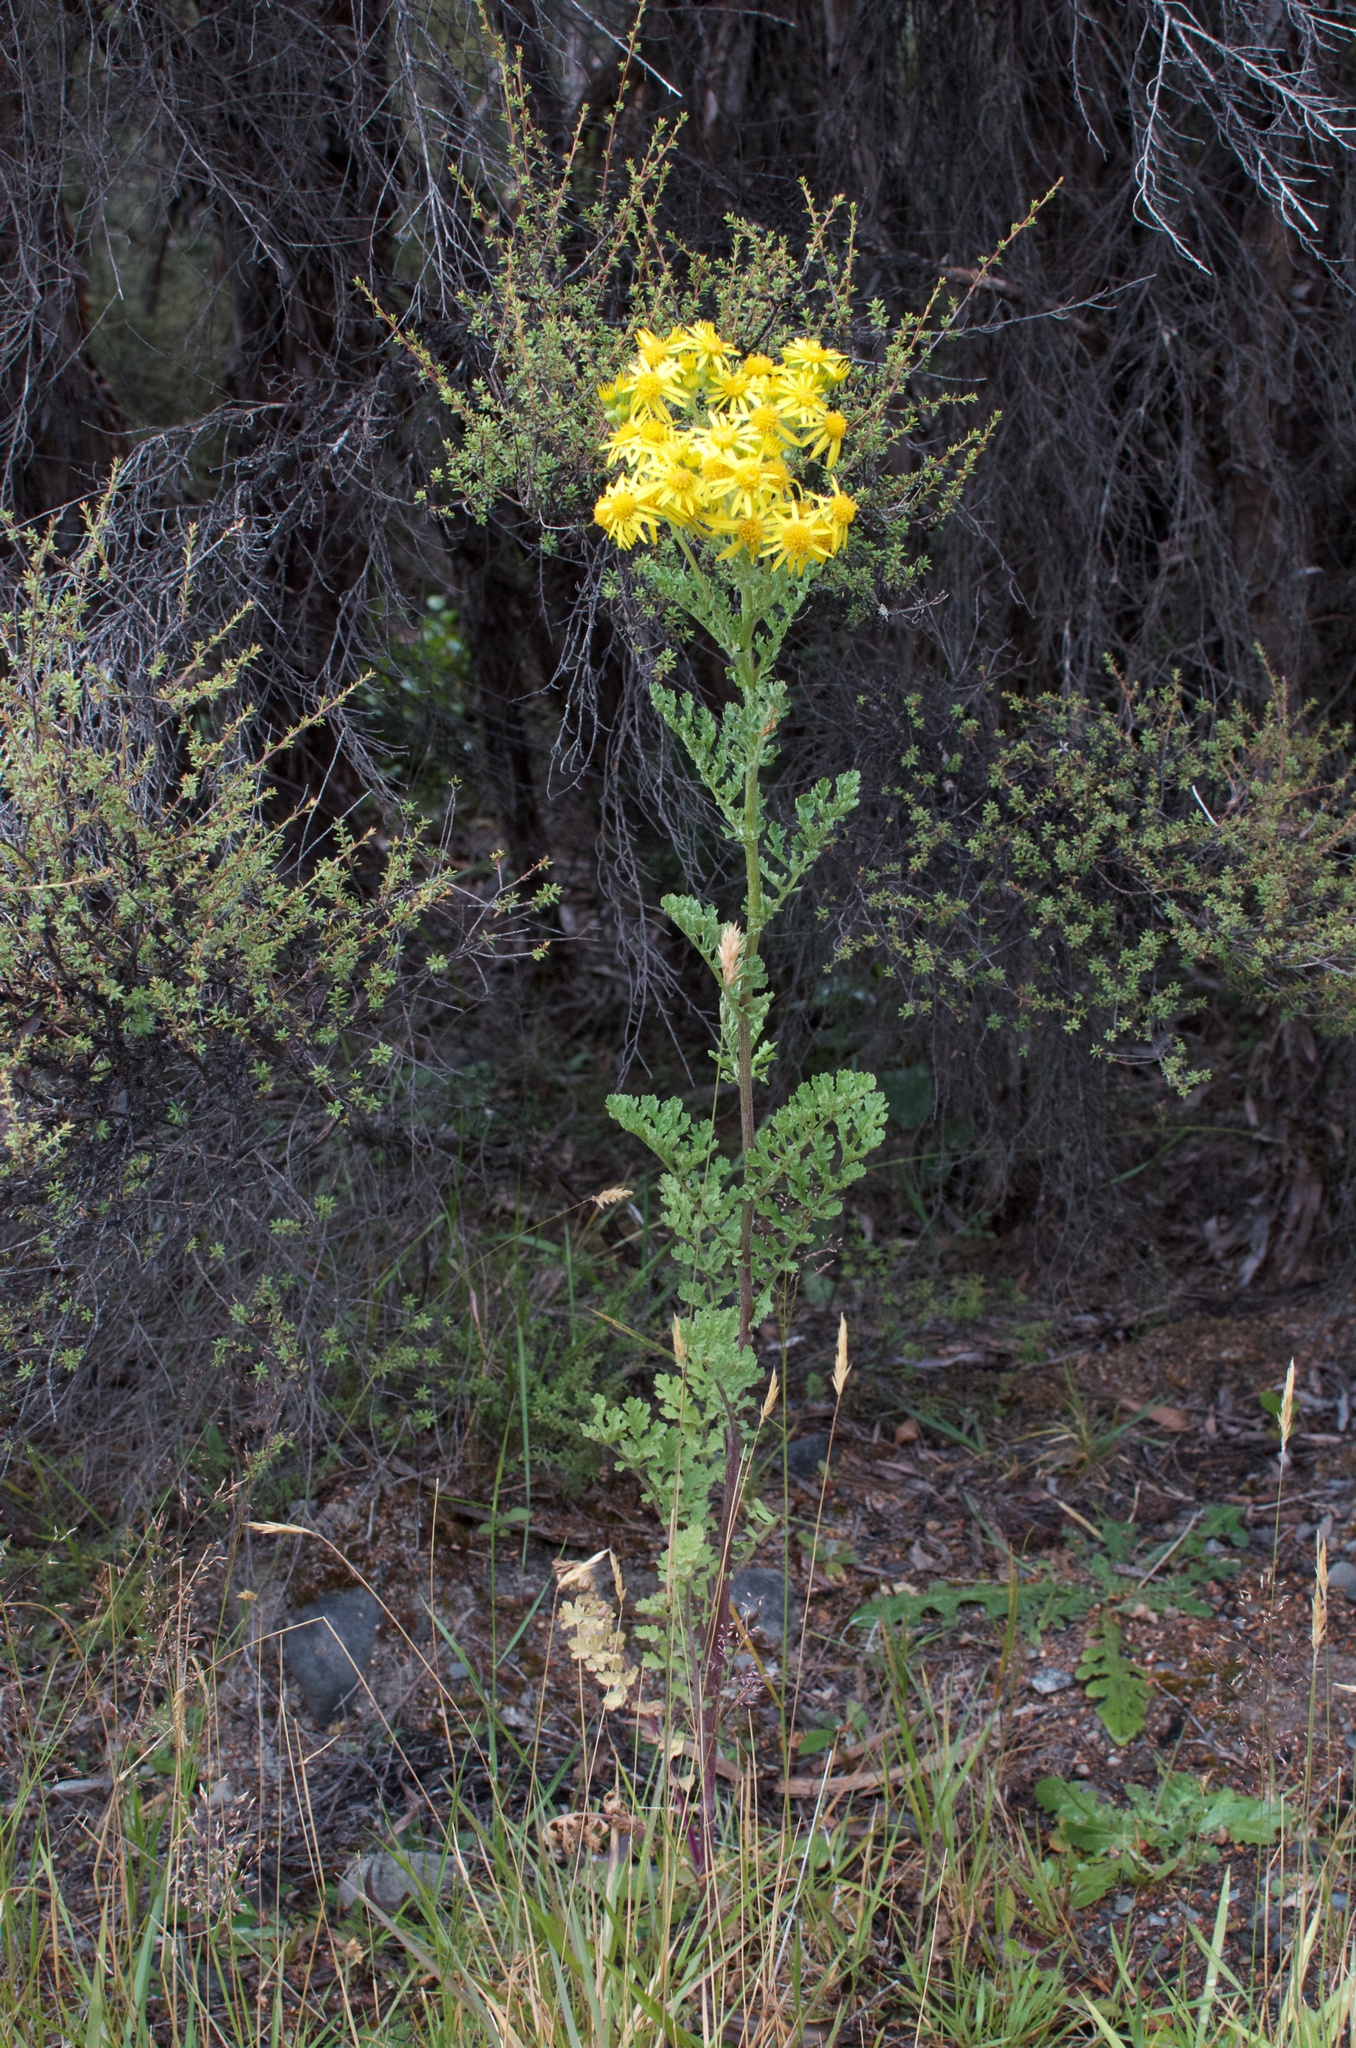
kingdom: Plantae
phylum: Tracheophyta
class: Magnoliopsida
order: Asterales
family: Asteraceae
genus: Jacobaea
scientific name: Jacobaea vulgaris
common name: Stinking willie
